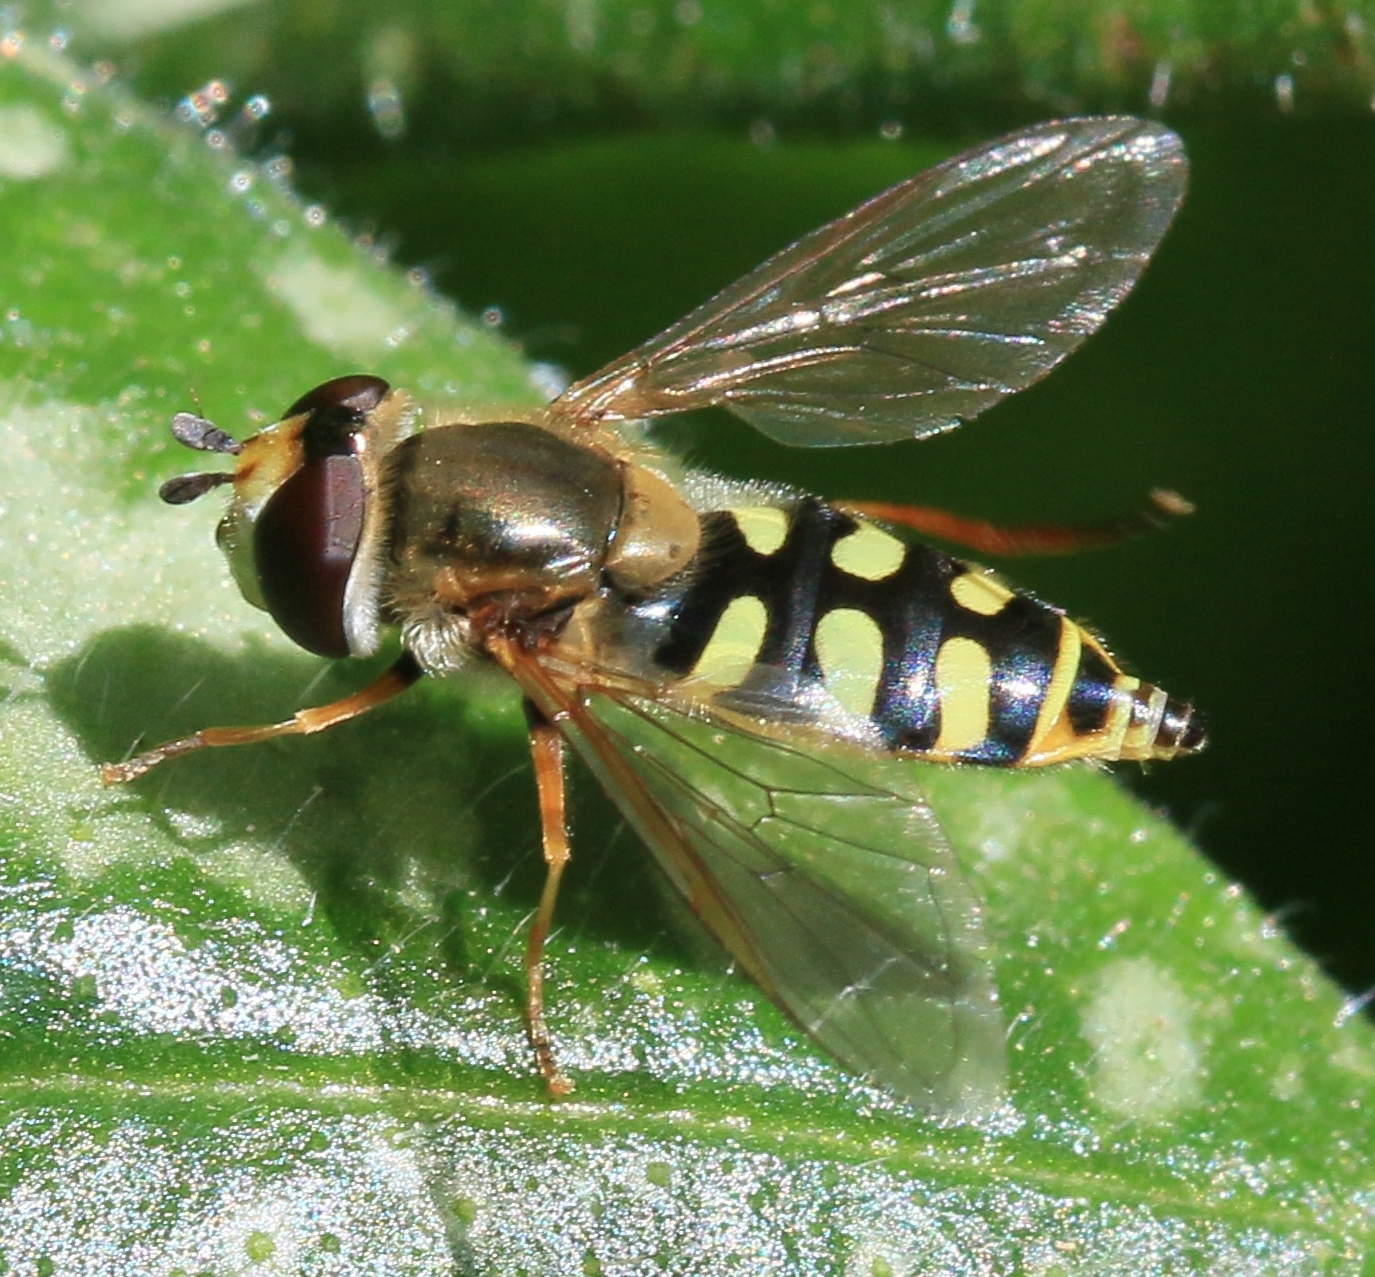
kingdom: Animalia
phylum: Arthropoda
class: Insecta
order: Diptera
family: Syrphidae
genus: Eupeodes
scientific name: Eupeodes corollae
